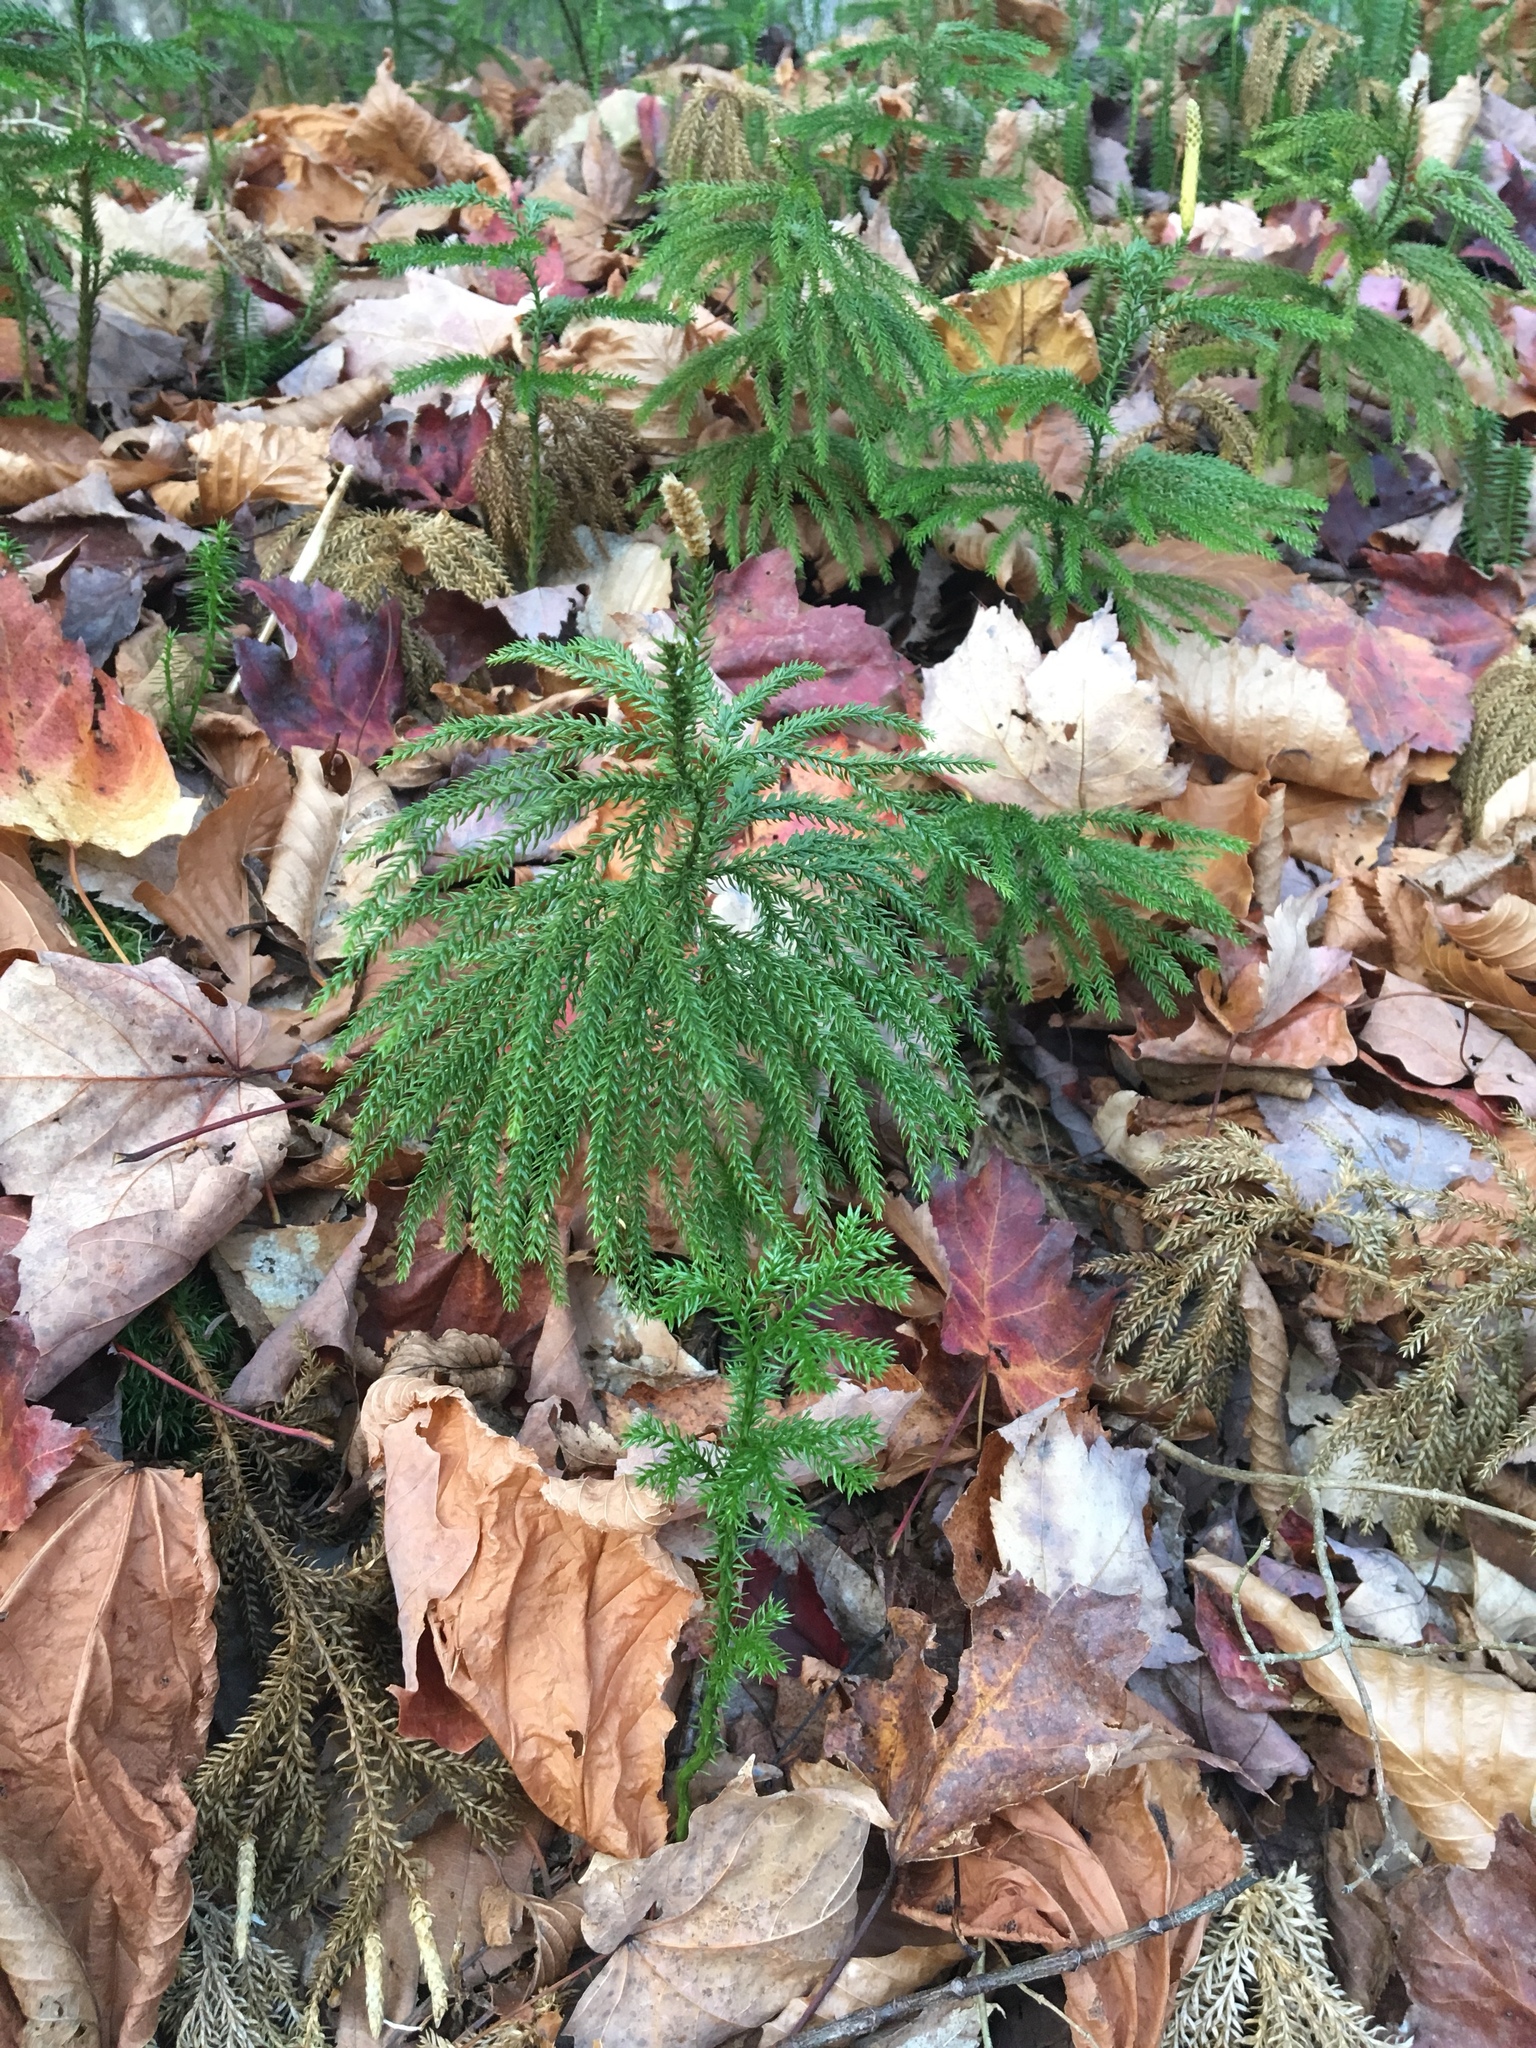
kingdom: Plantae
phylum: Tracheophyta
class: Lycopodiopsida
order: Lycopodiales
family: Lycopodiaceae
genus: Dendrolycopodium
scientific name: Dendrolycopodium dendroideum
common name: Northern tree-clubmoss
